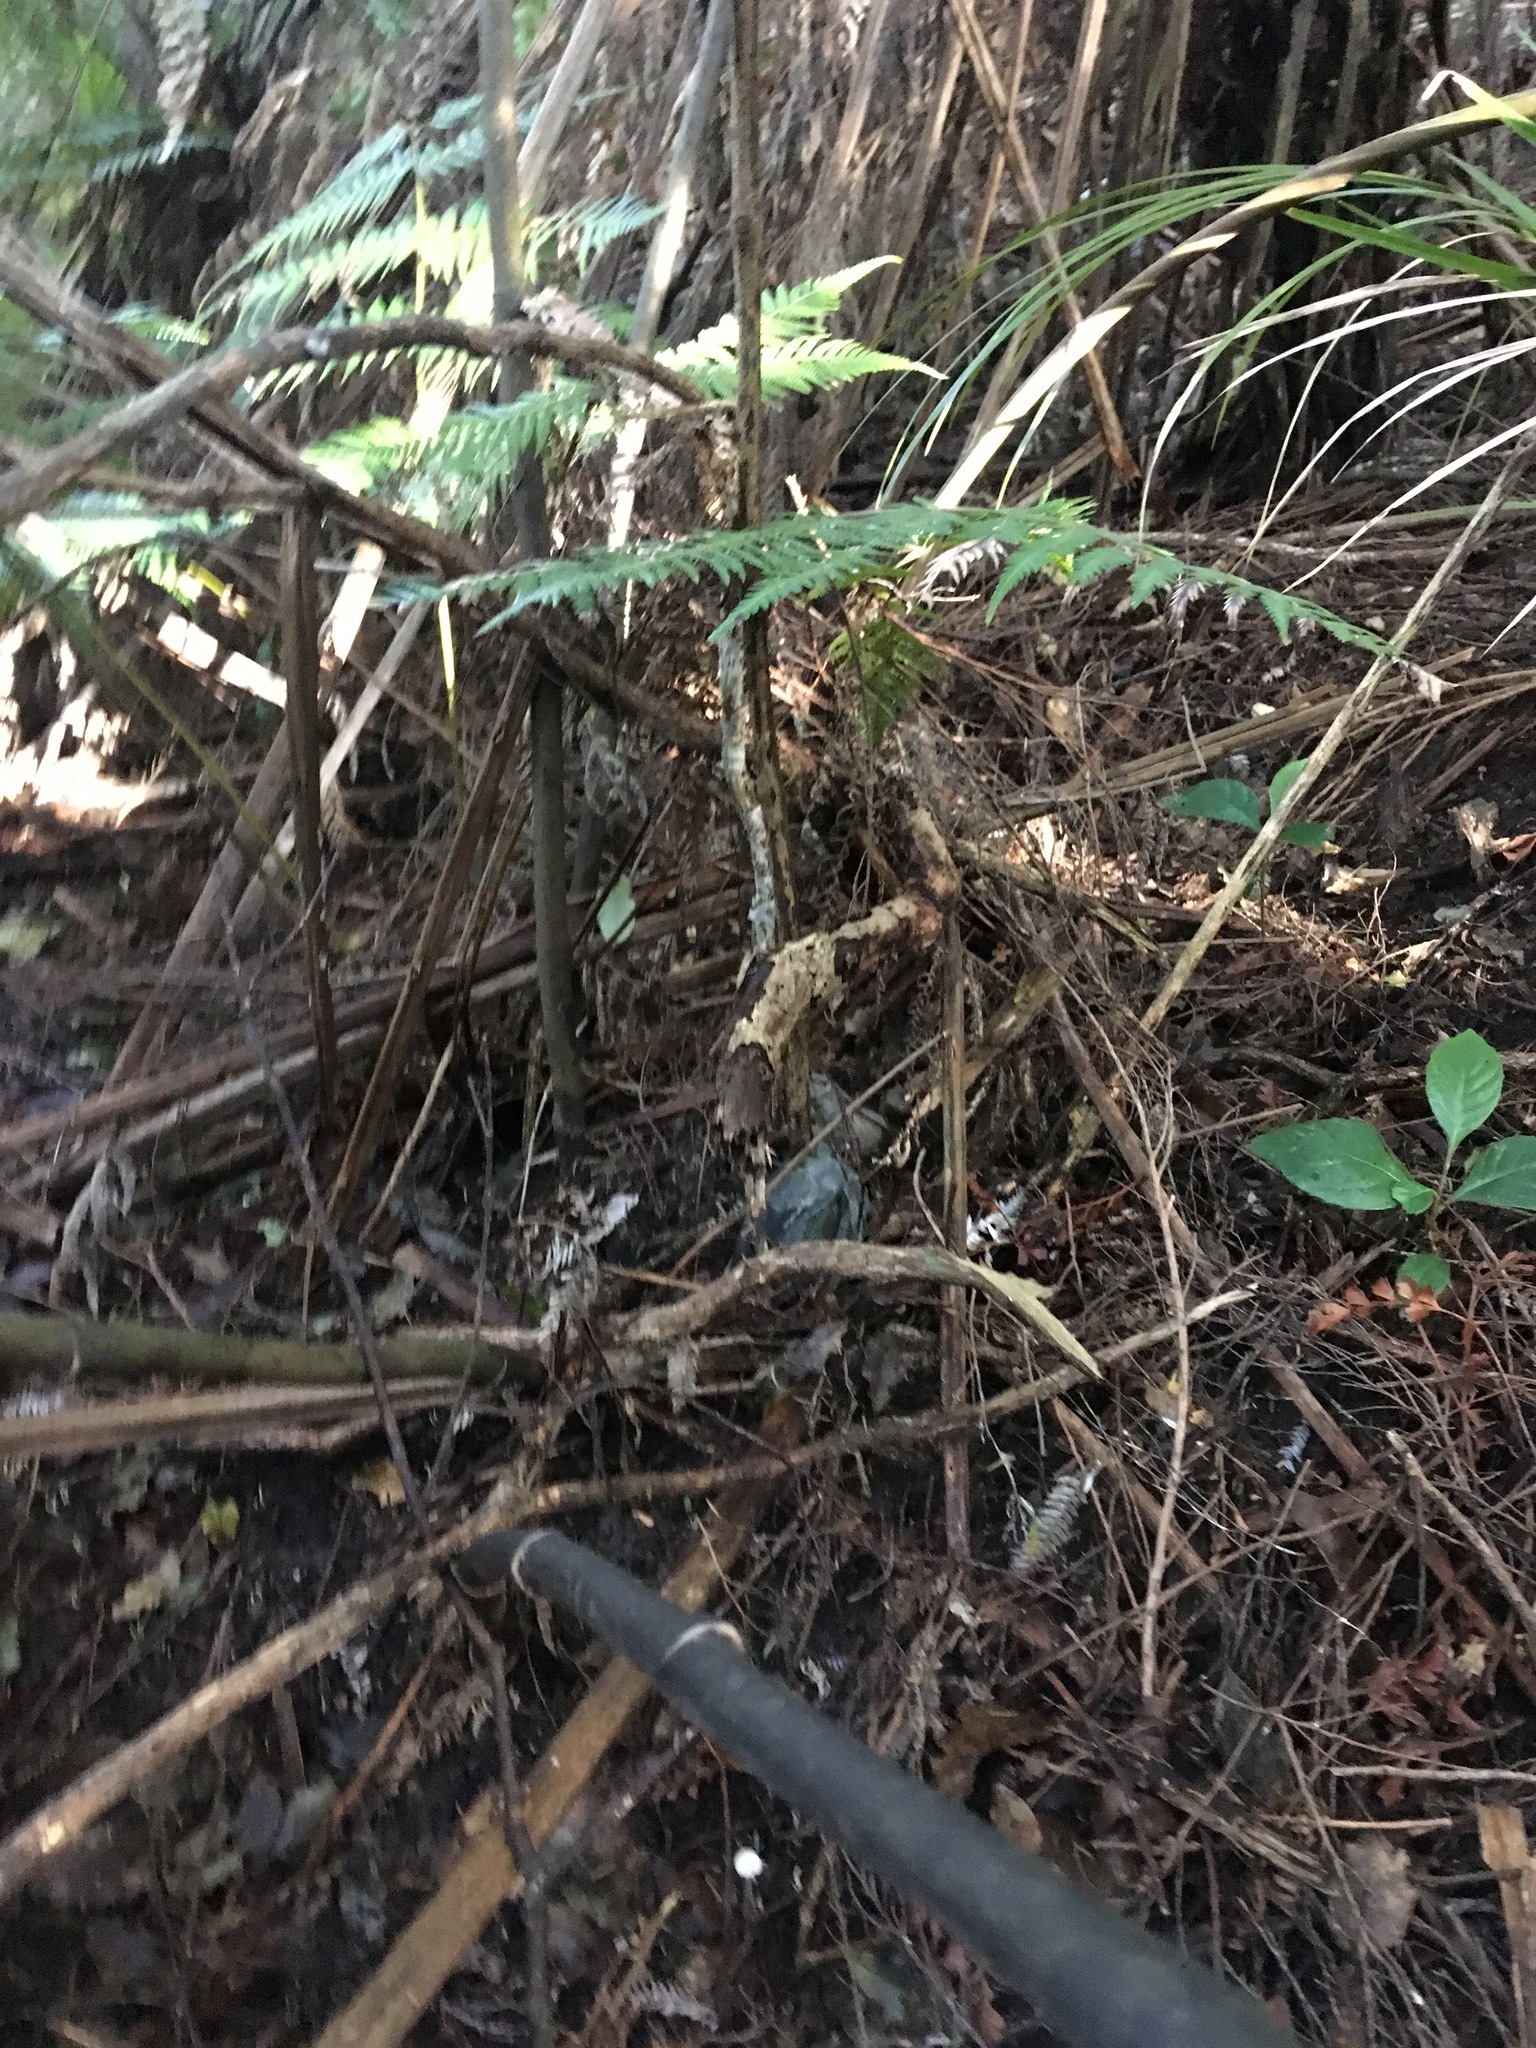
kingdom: Plantae
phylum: Tracheophyta
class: Liliopsida
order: Liliales
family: Ripogonaceae
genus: Ripogonum
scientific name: Ripogonum scandens
